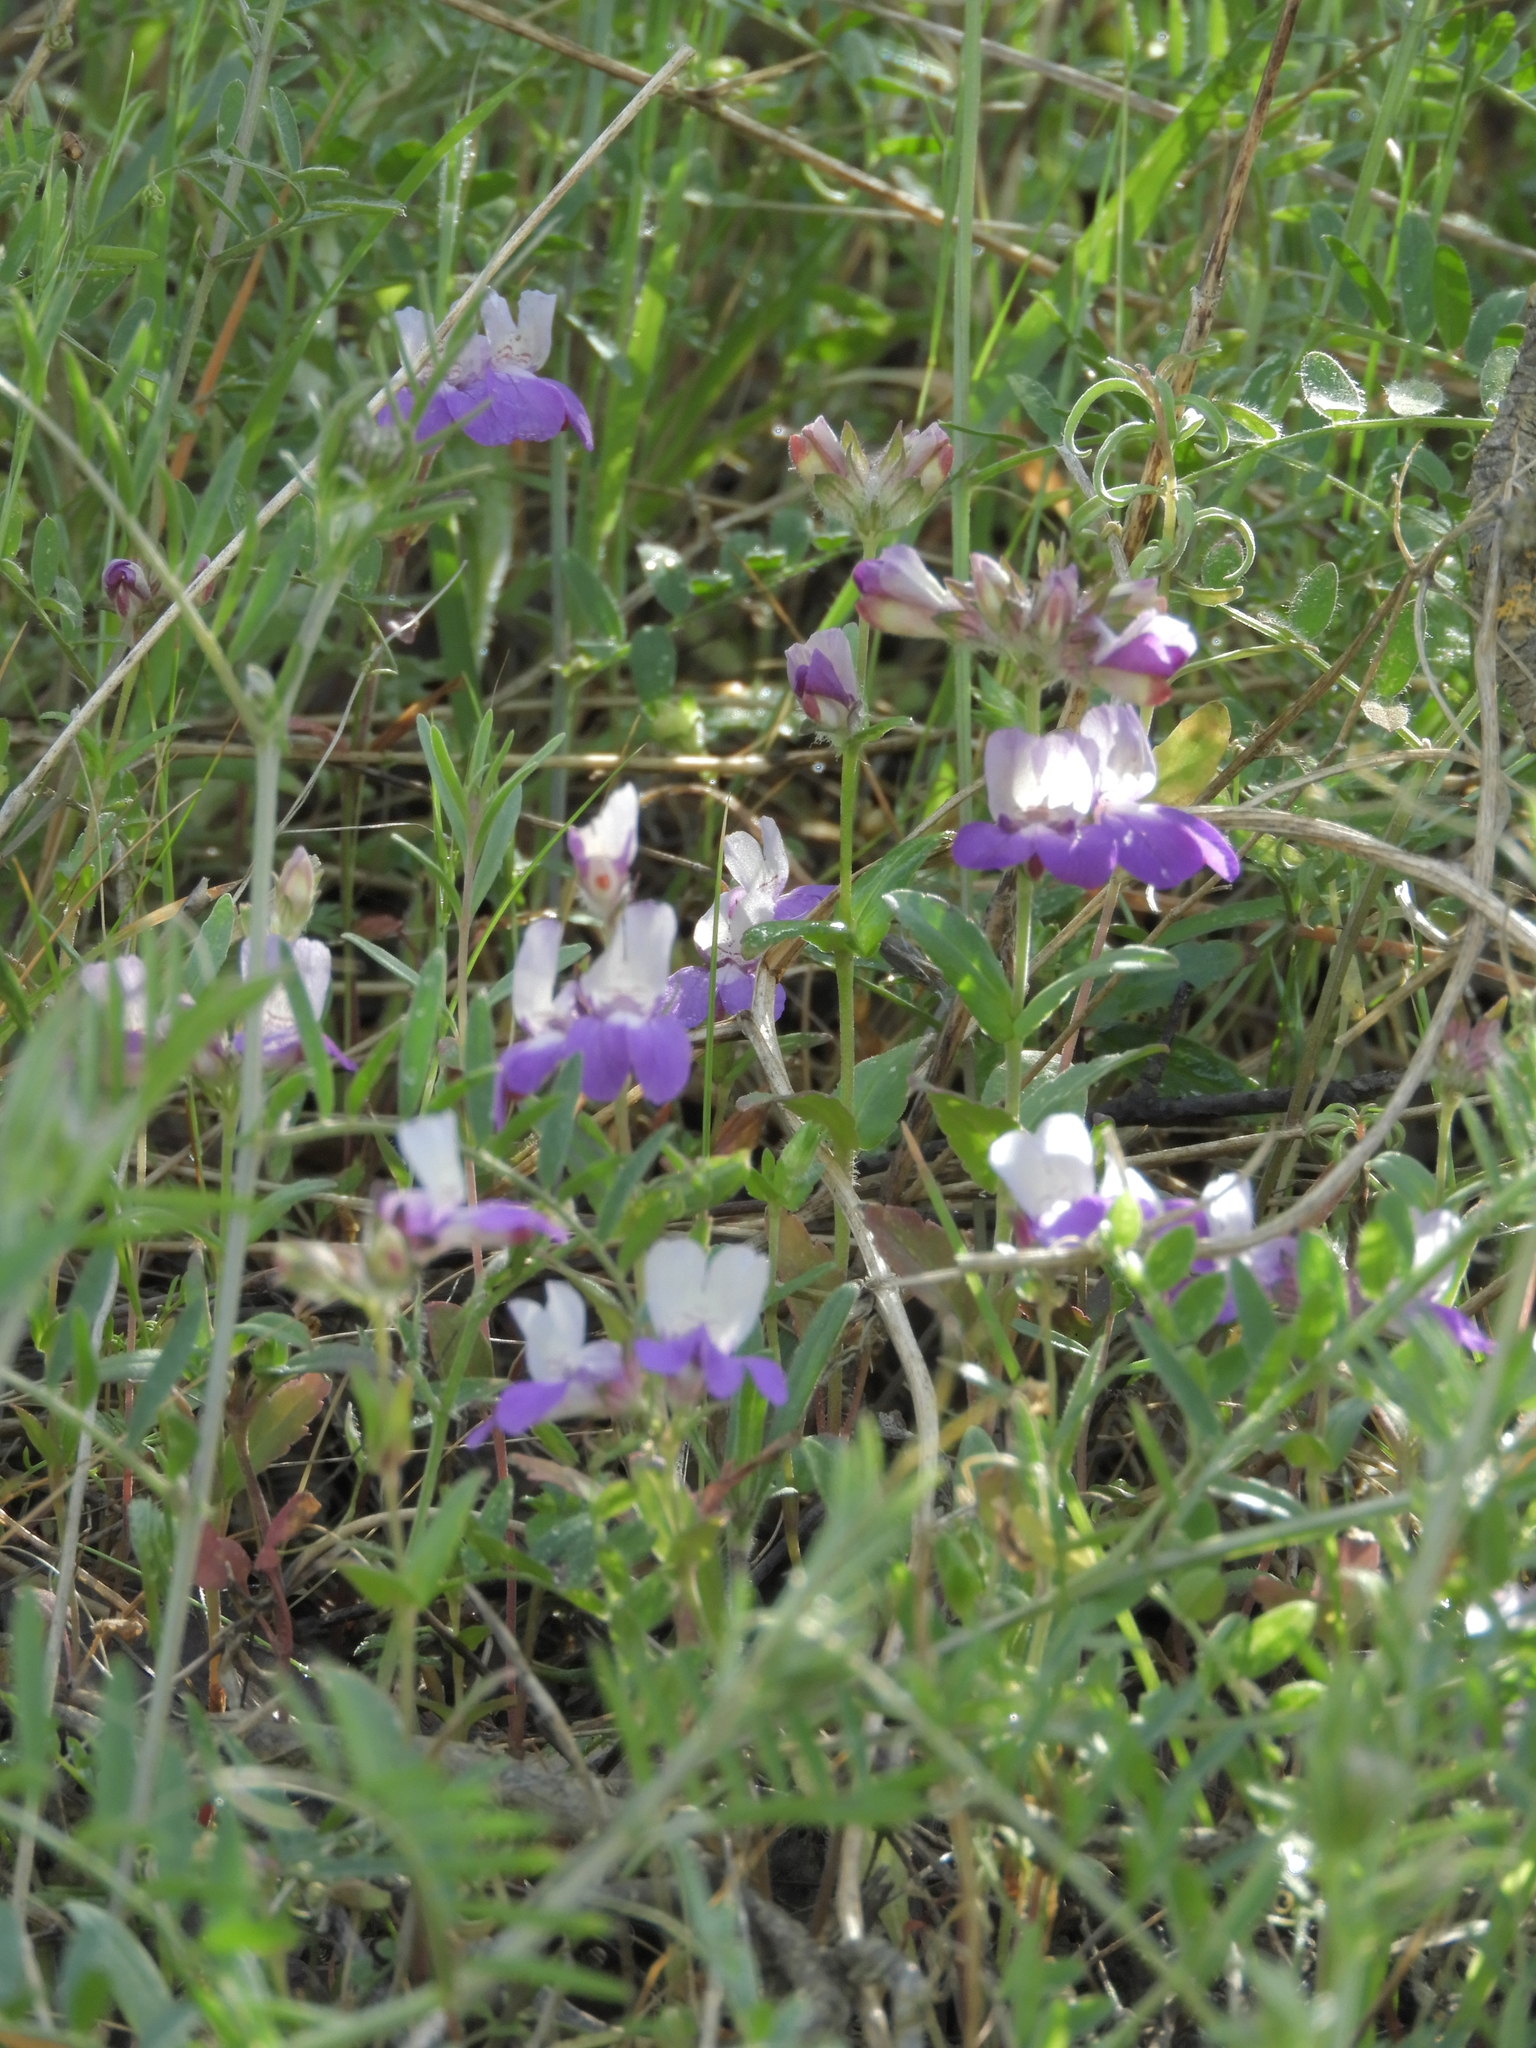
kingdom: Plantae
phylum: Tracheophyta
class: Magnoliopsida
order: Lamiales
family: Plantaginaceae
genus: Collinsia
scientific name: Collinsia heterophylla
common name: Chinese-houses
